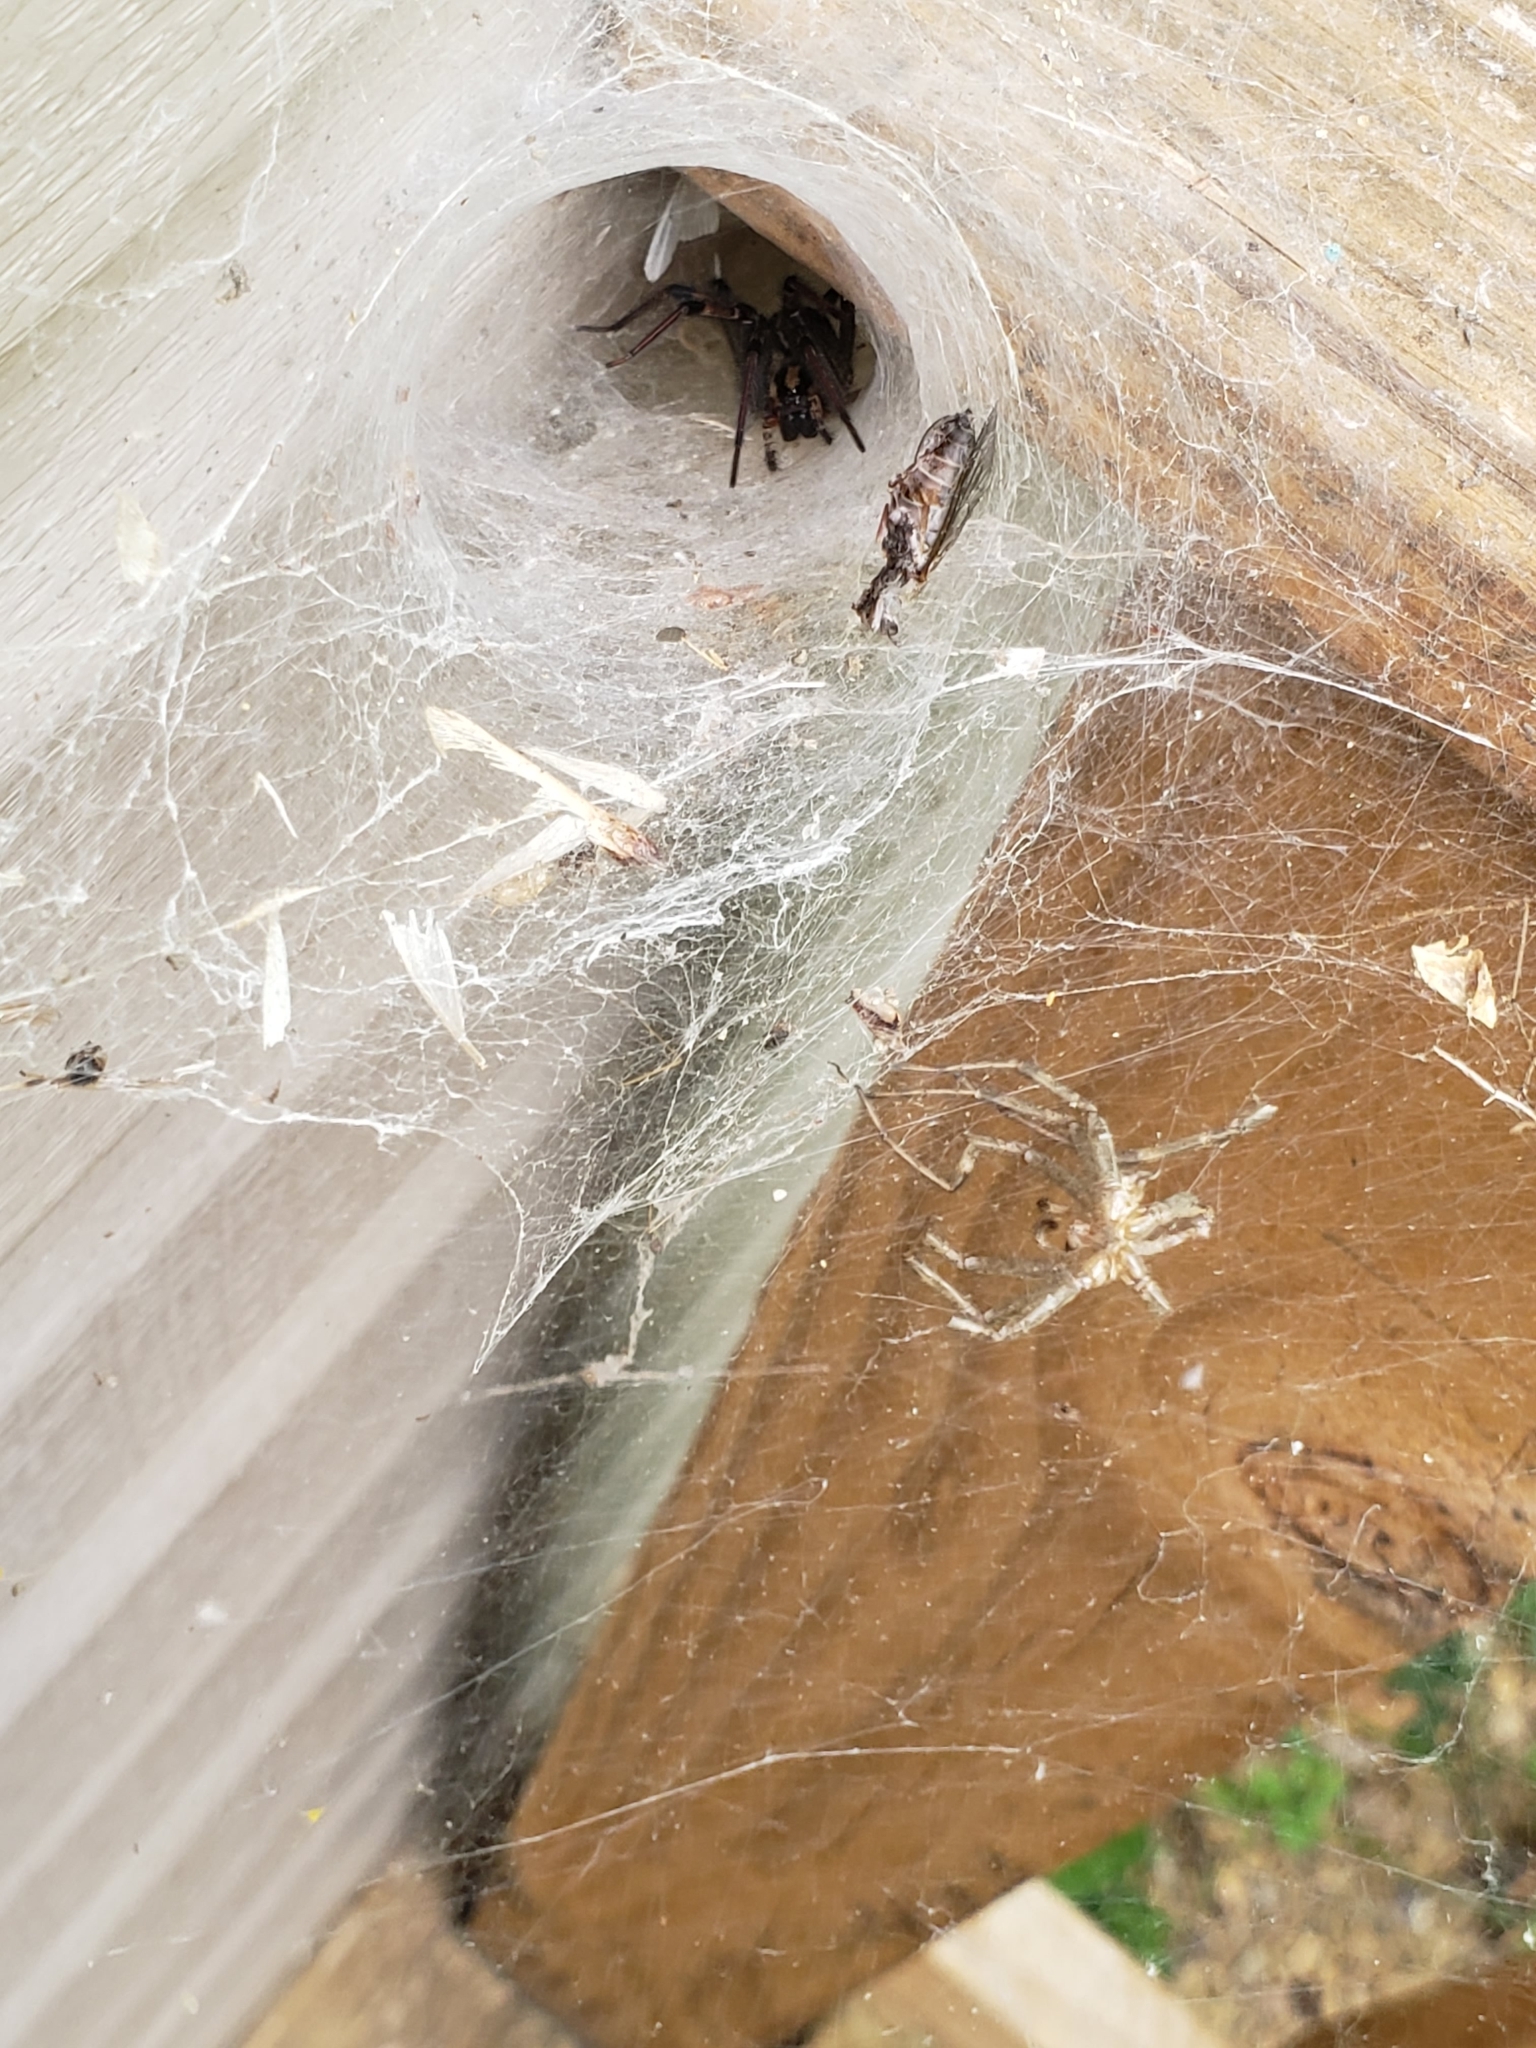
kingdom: Animalia
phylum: Arthropoda
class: Arachnida
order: Araneae
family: Agelenidae
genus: Agelenopsis
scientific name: Agelenopsis
